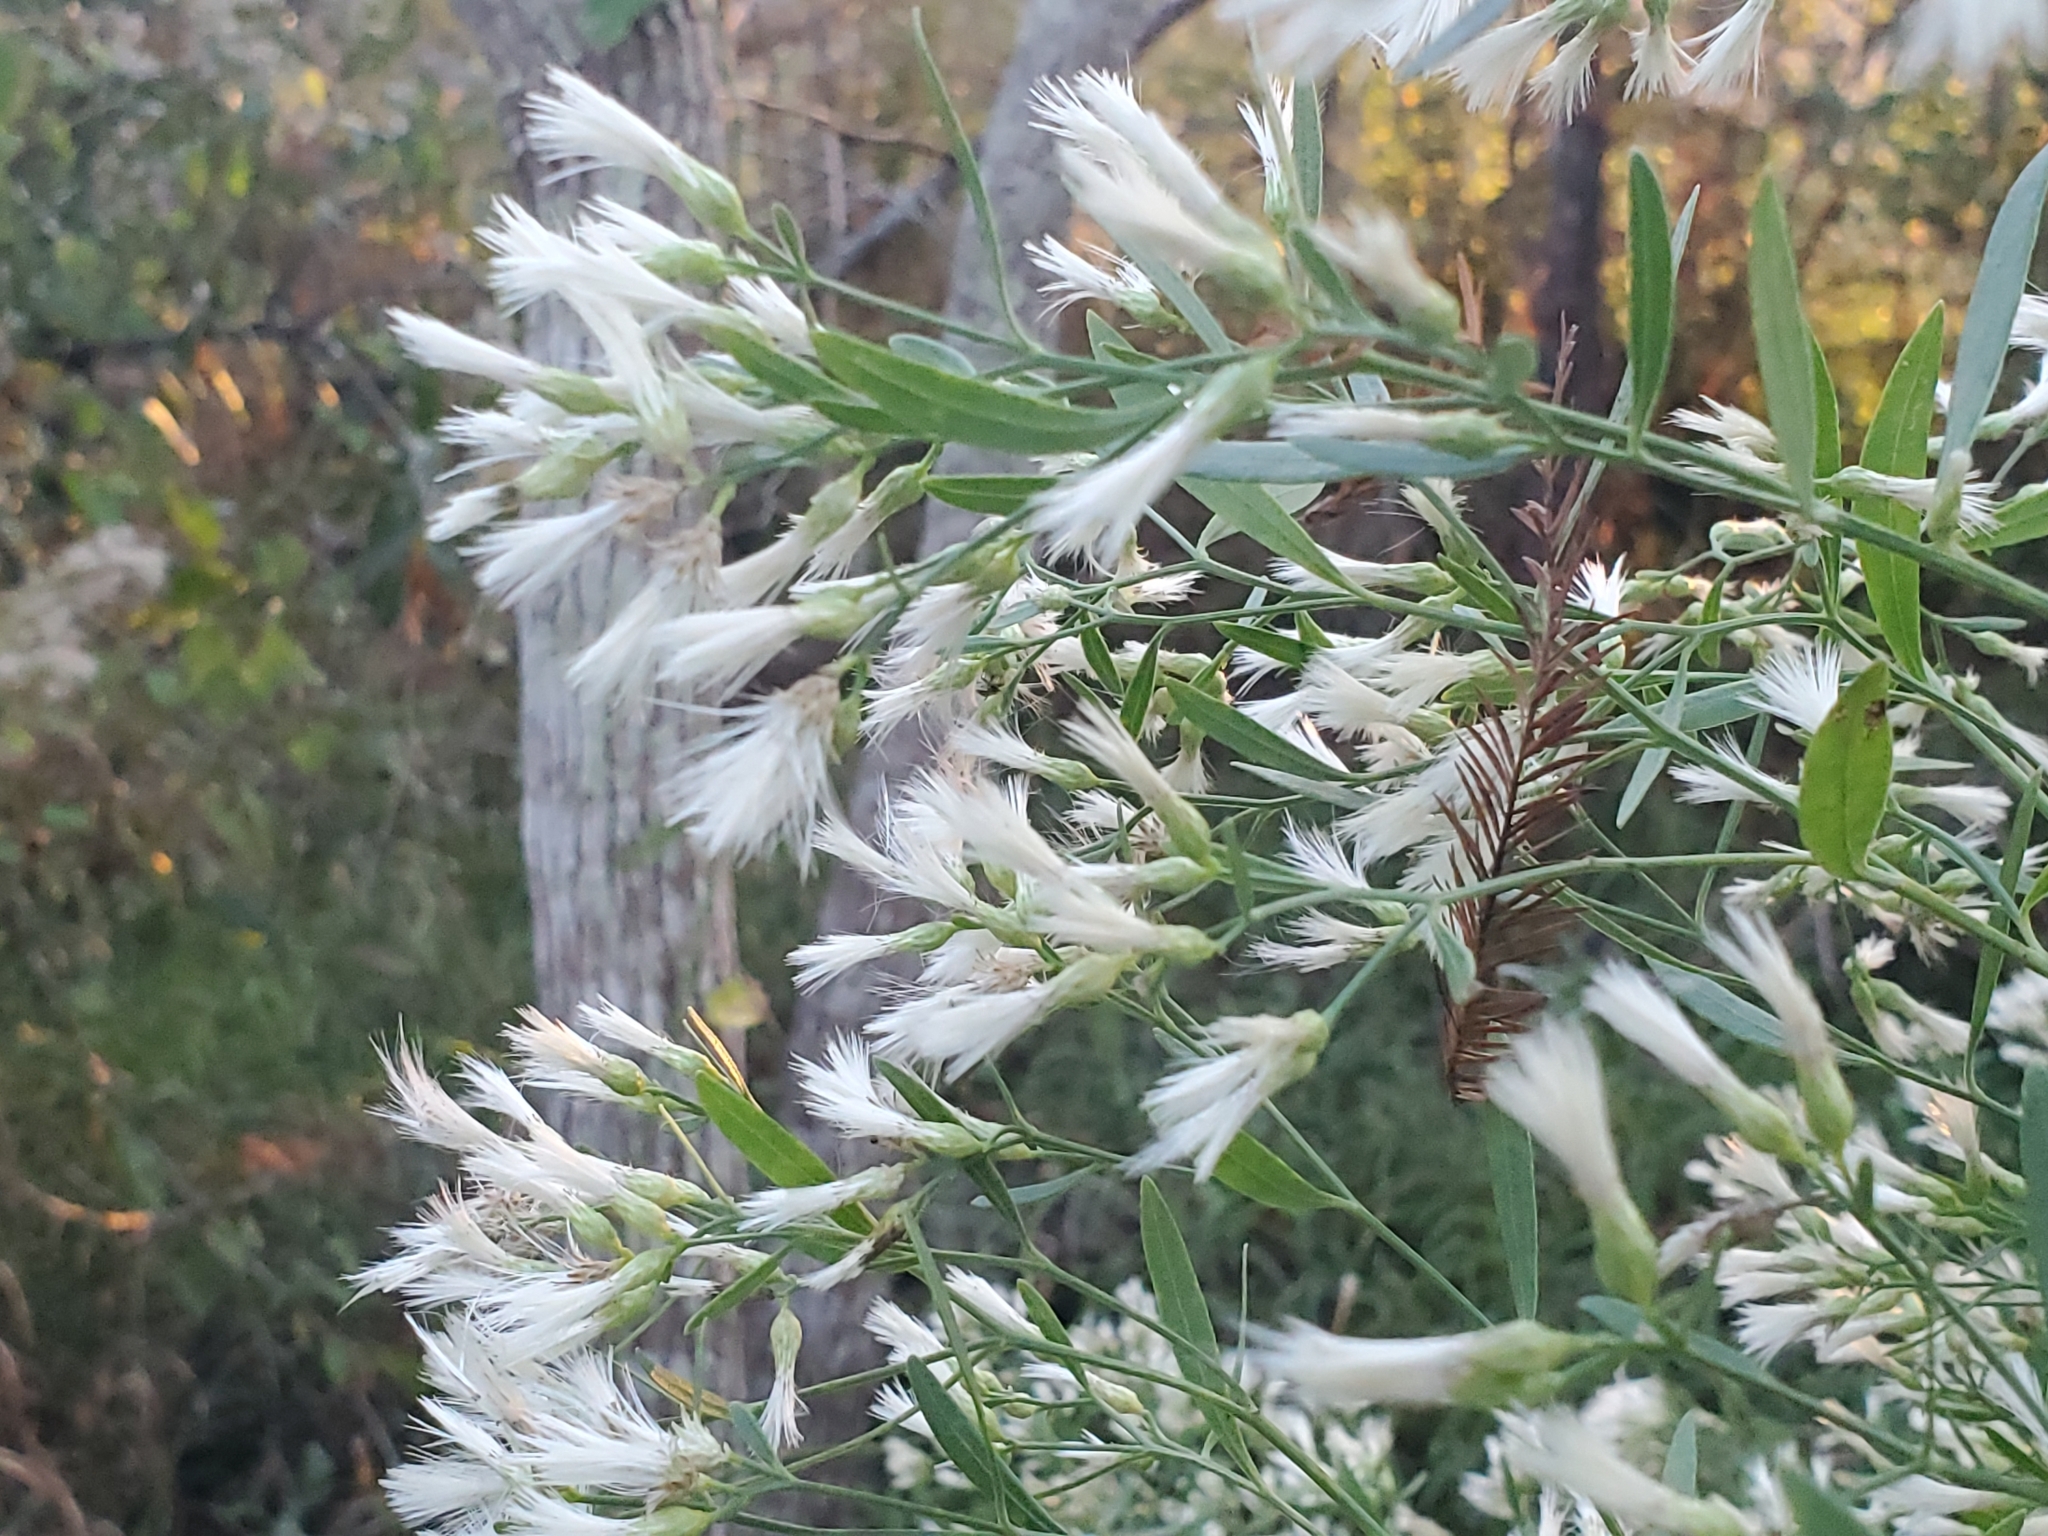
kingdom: Plantae
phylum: Tracheophyta
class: Magnoliopsida
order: Asterales
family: Asteraceae
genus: Baccharis
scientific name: Baccharis halimifolia
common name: Eastern baccharis
